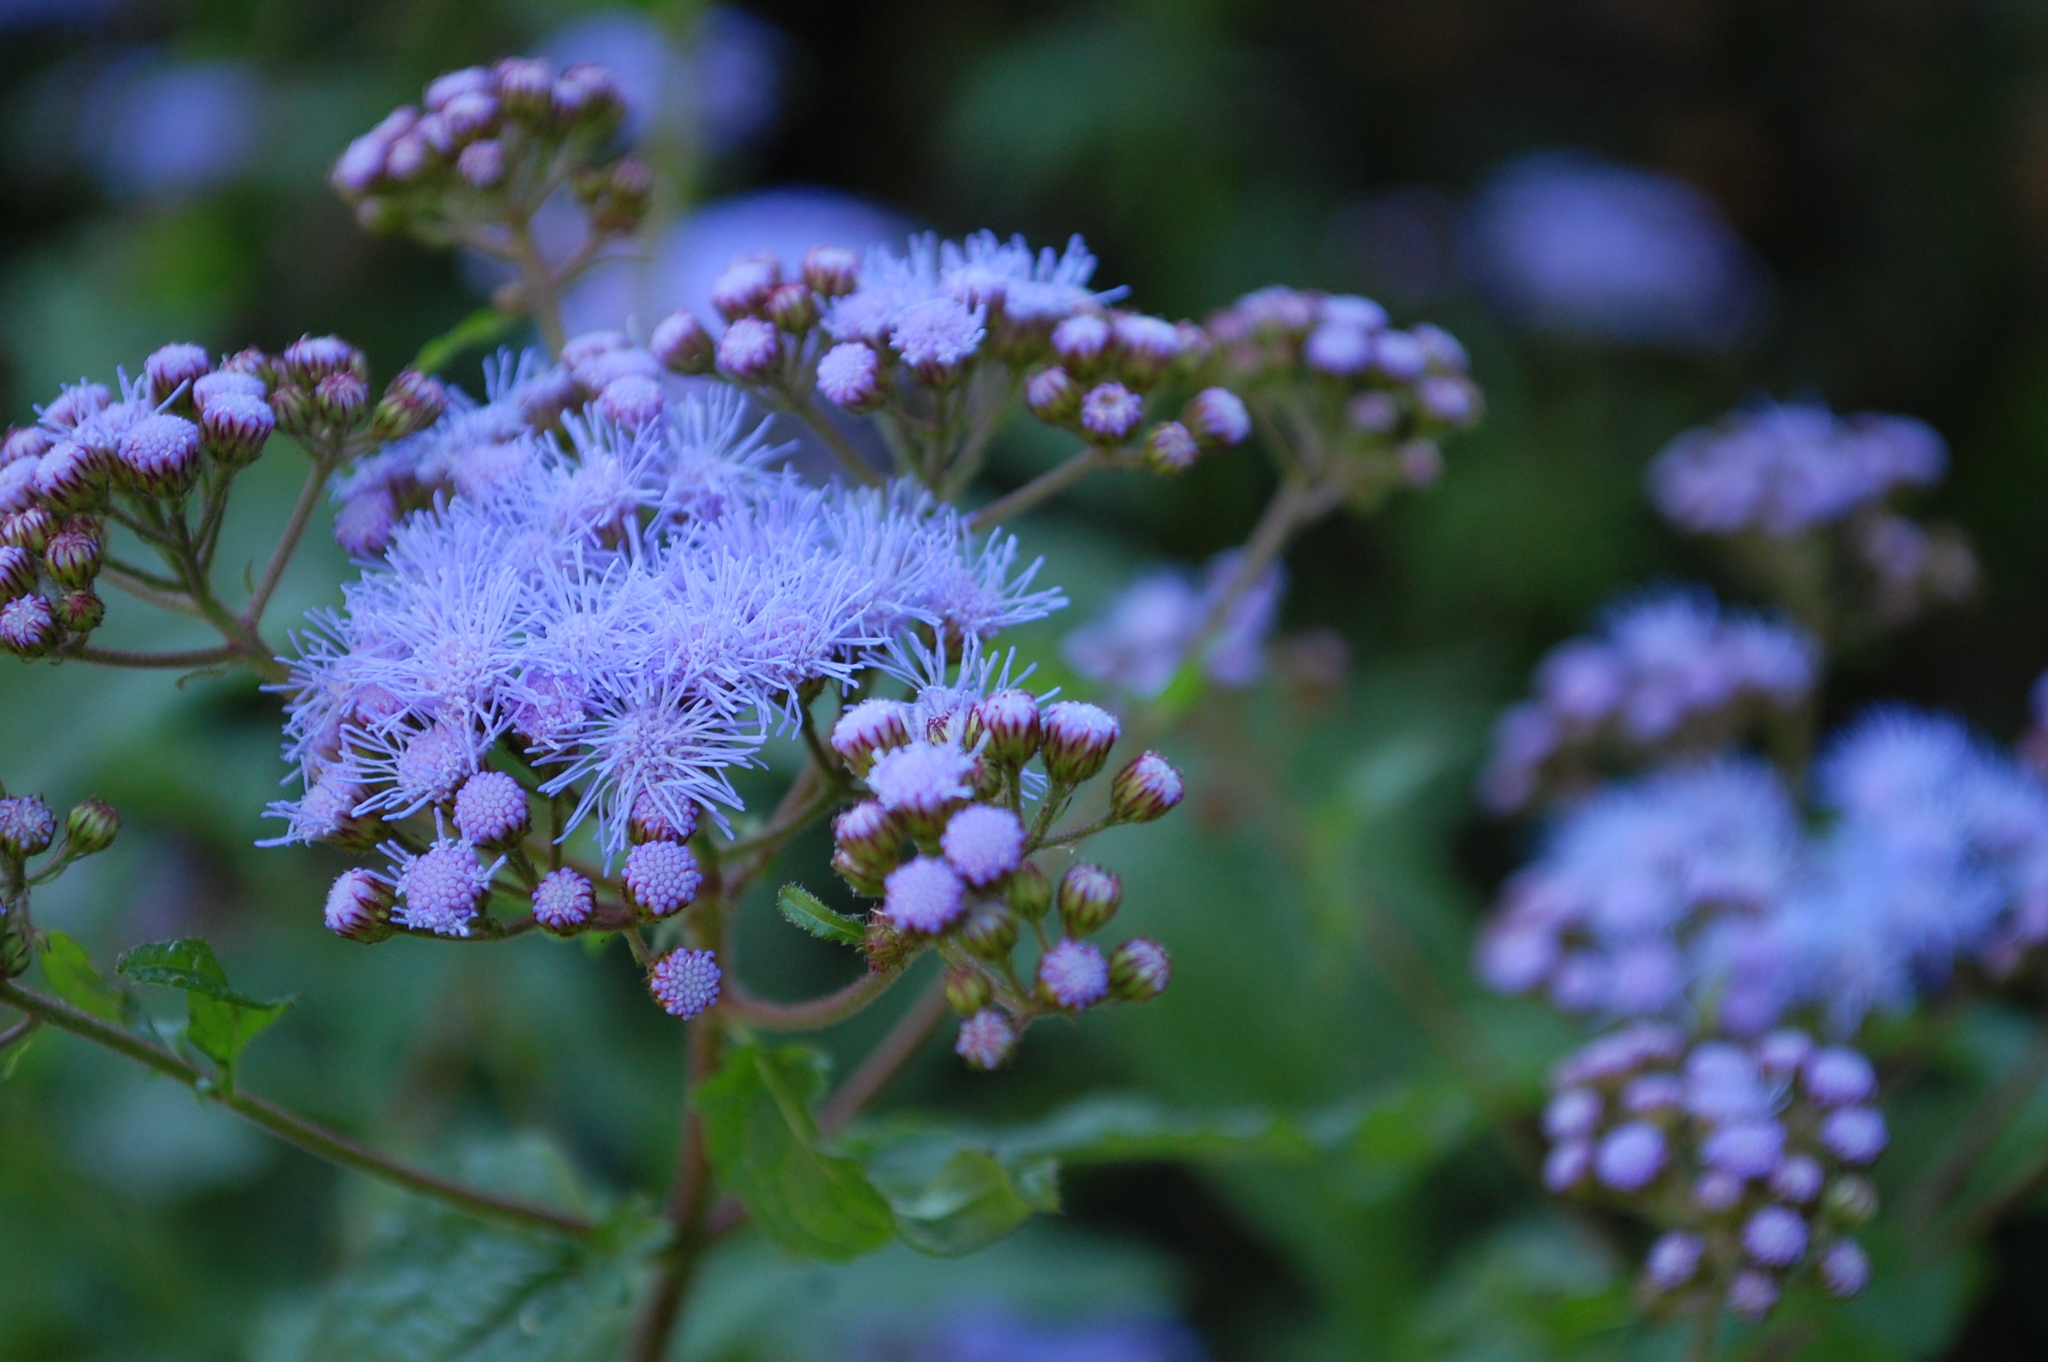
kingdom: Plantae
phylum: Tracheophyta
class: Magnoliopsida
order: Asterales
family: Asteraceae
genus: Conoclinium
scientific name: Conoclinium coelestinum
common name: Blue mistflower
